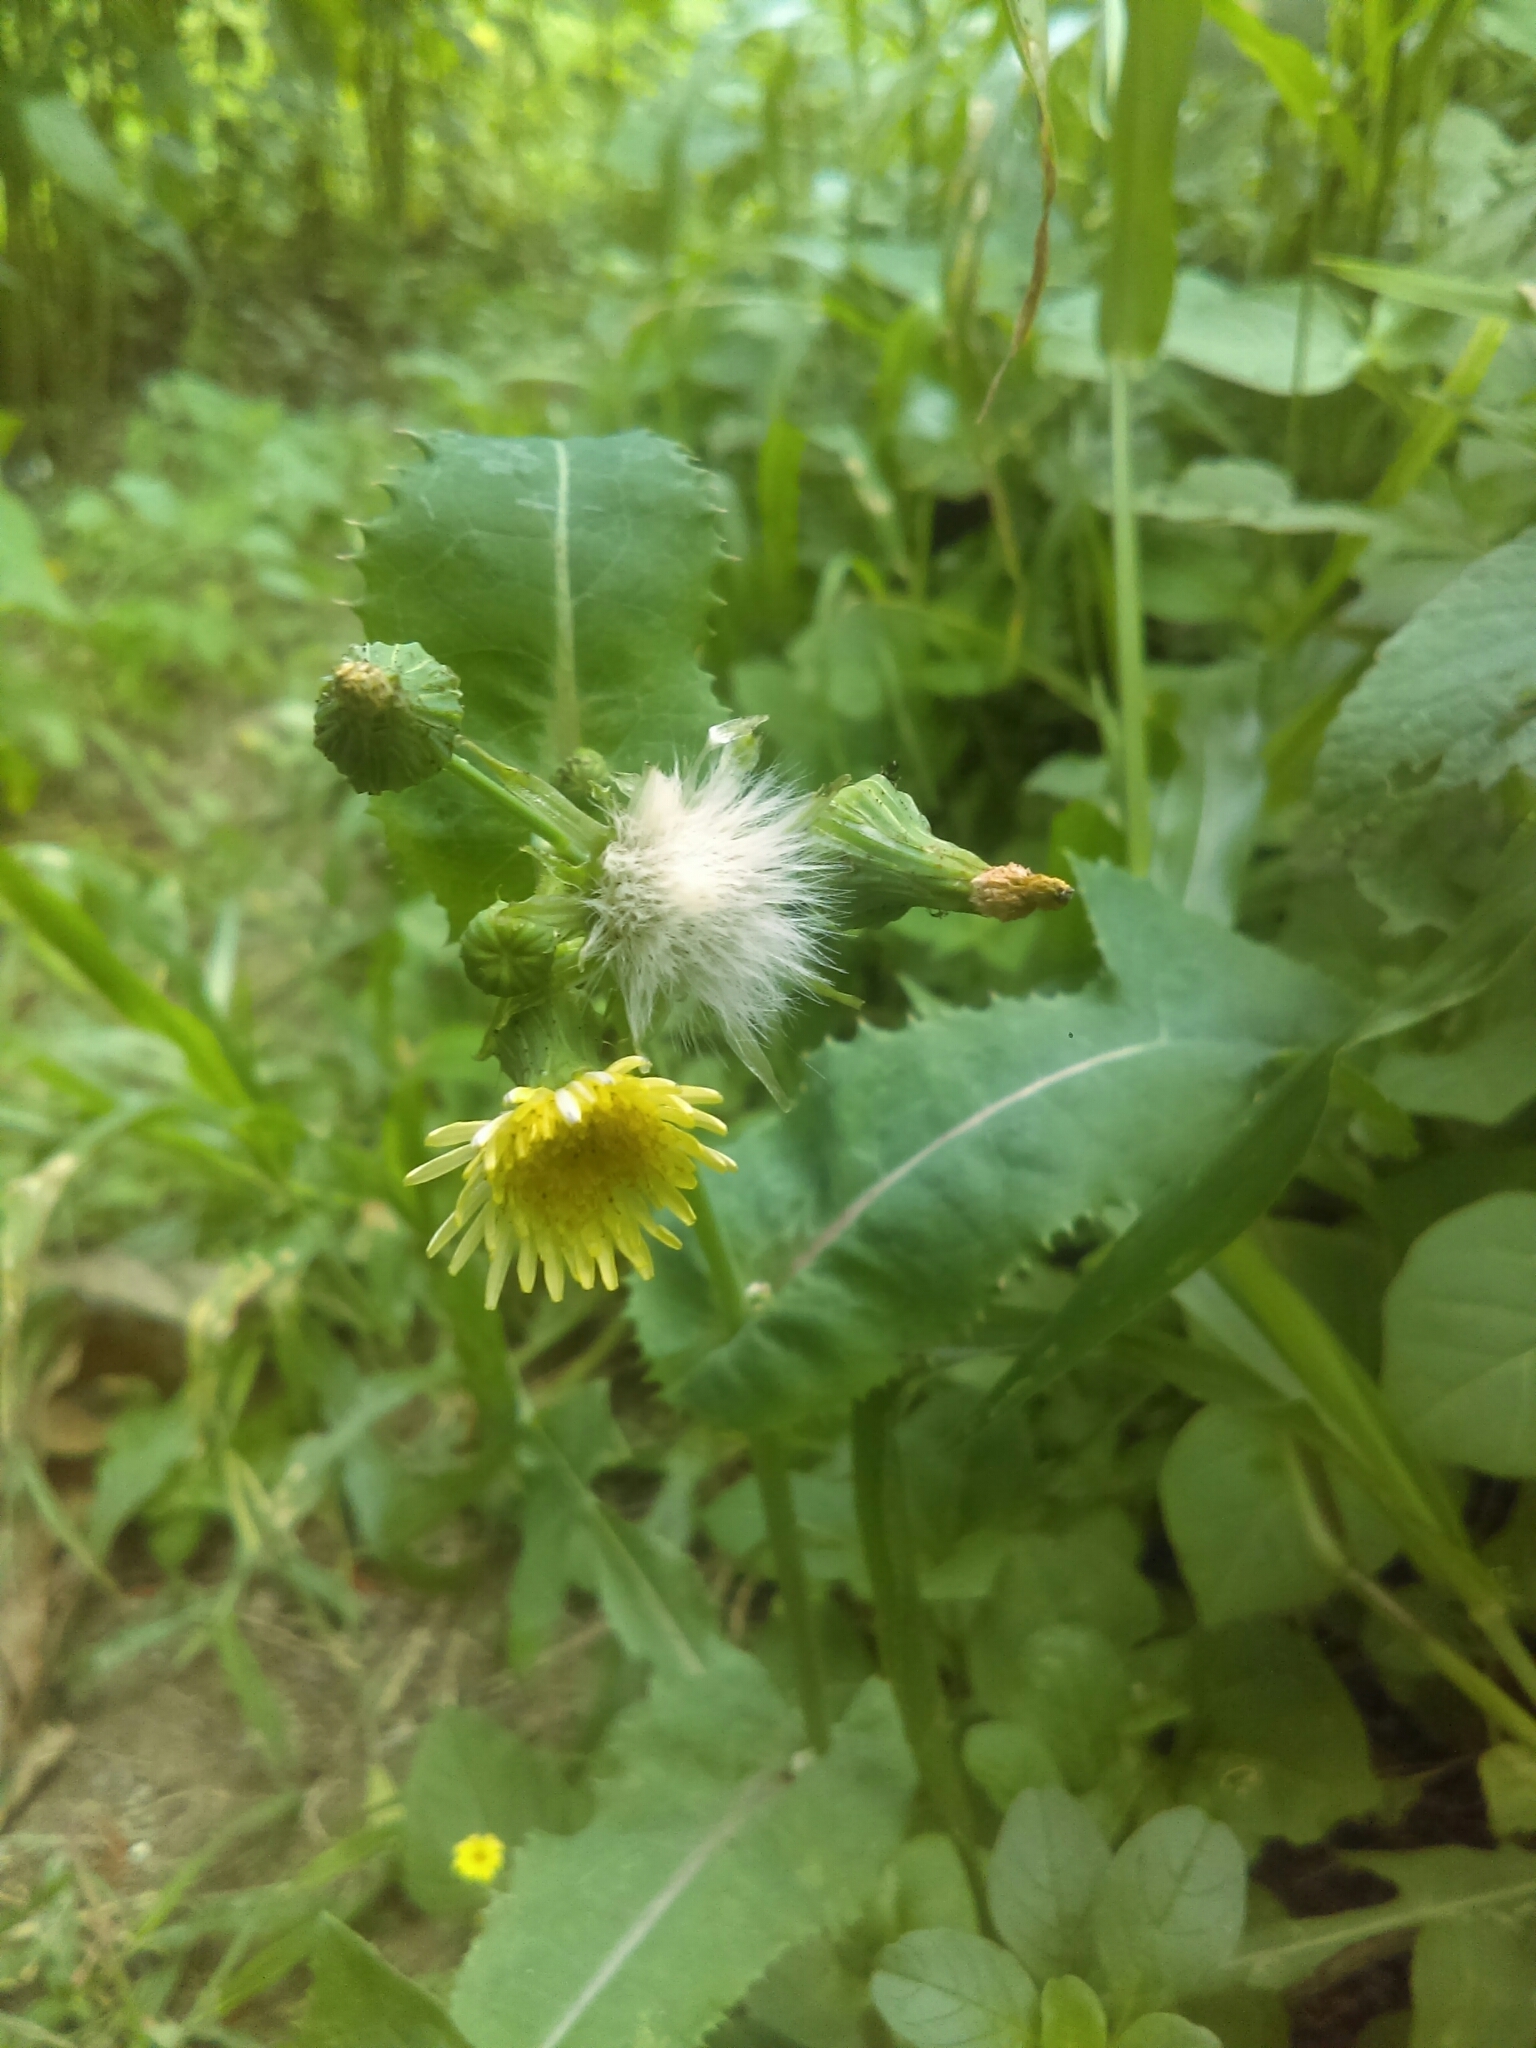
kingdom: Plantae
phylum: Tracheophyta
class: Magnoliopsida
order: Asterales
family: Asteraceae
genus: Sonchus
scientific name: Sonchus oleraceus
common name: Common sowthistle
